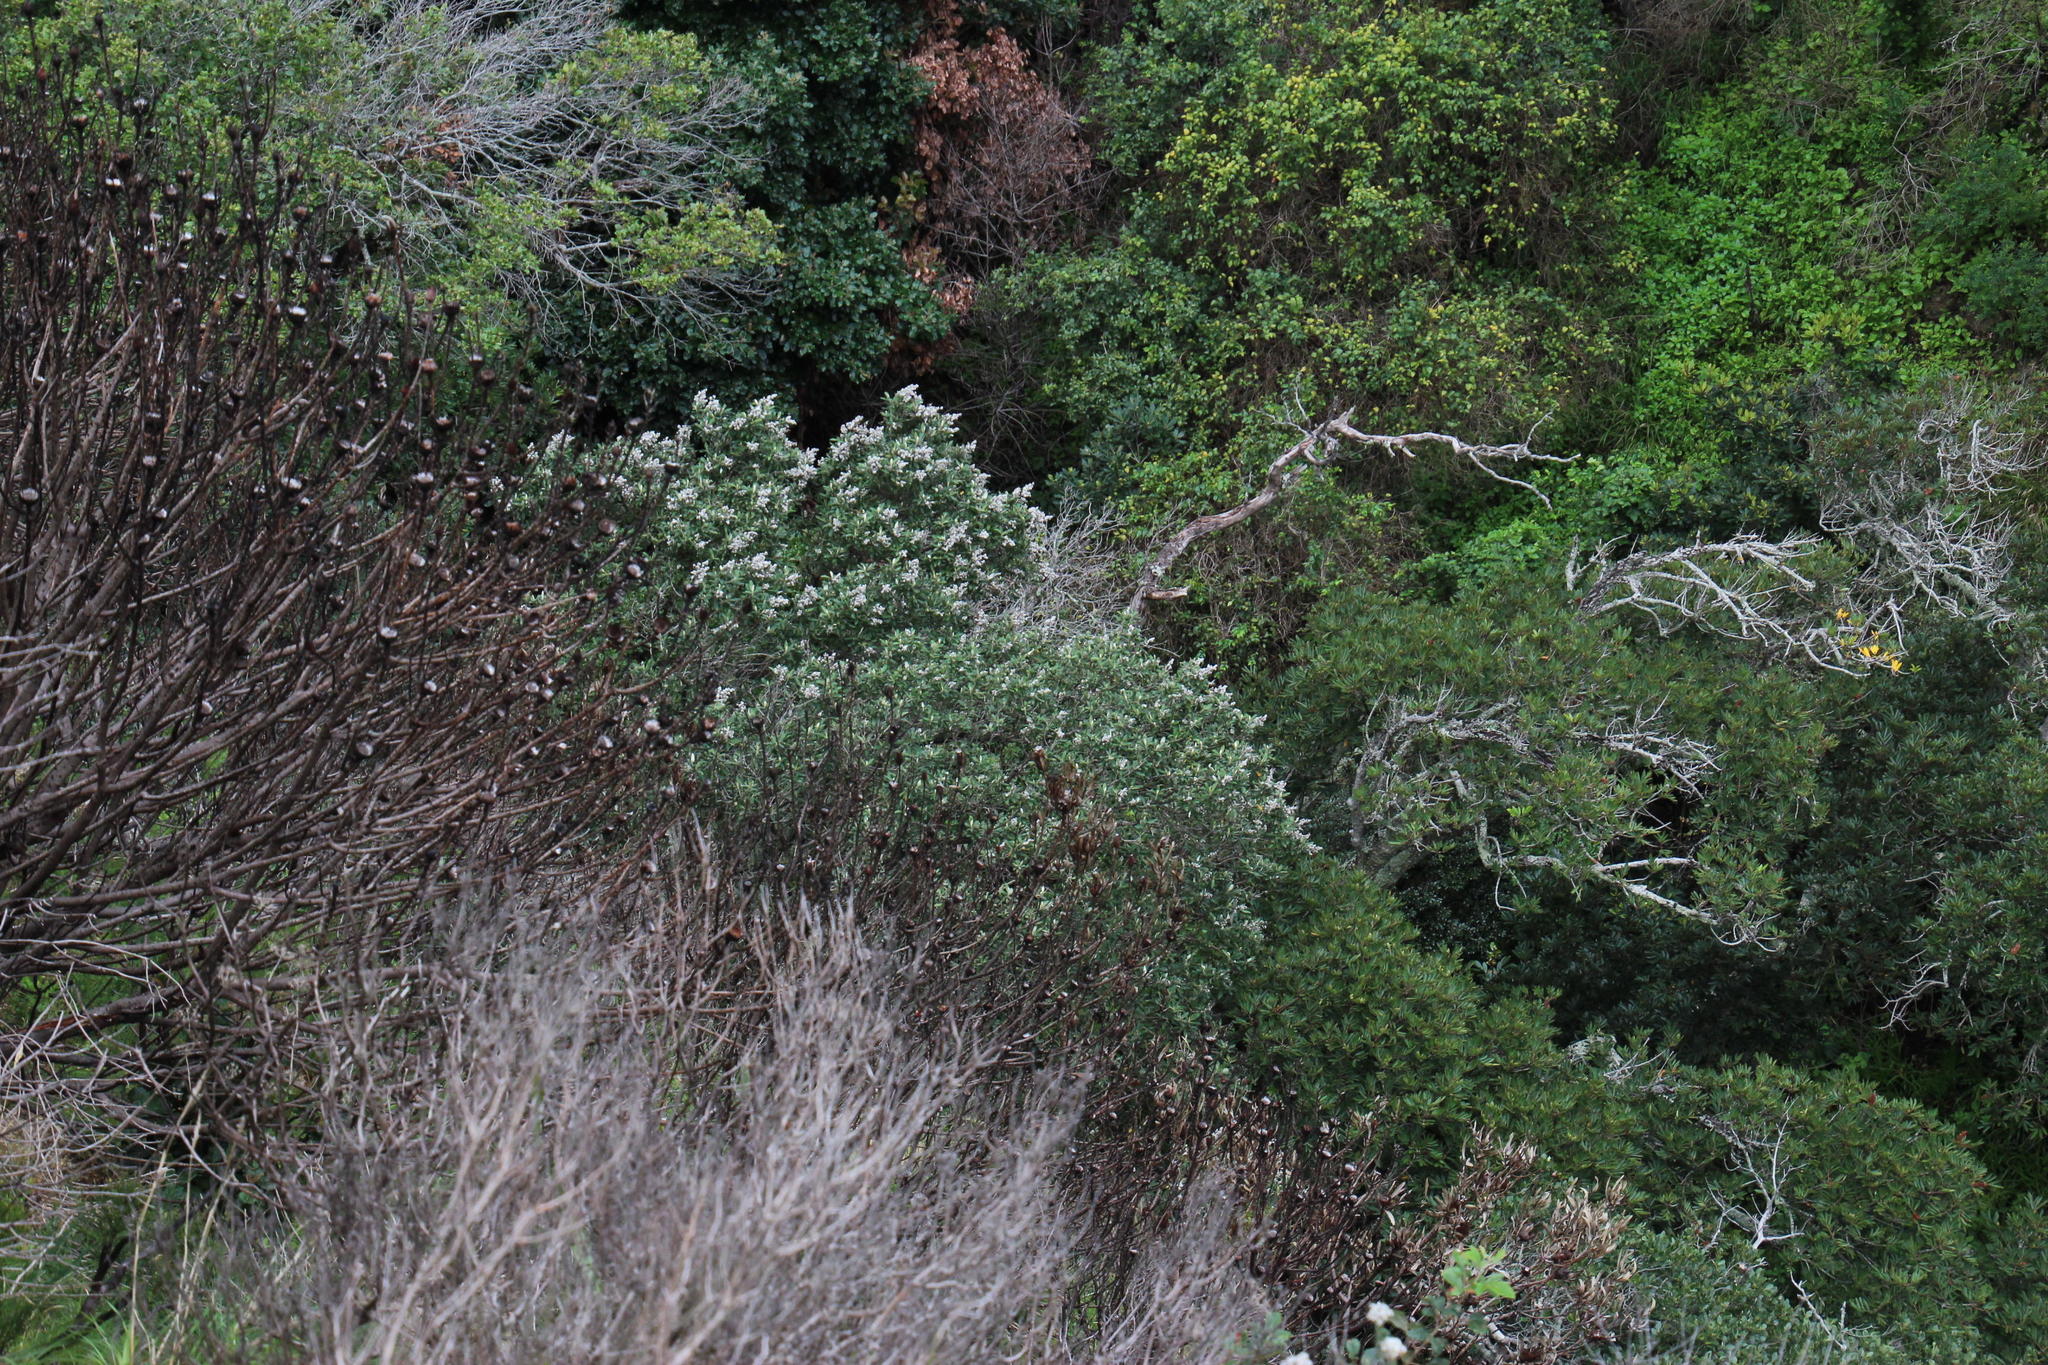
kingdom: Plantae
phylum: Tracheophyta
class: Magnoliopsida
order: Asterales
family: Asteraceae
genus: Tarchonanthus
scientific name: Tarchonanthus littoralis
